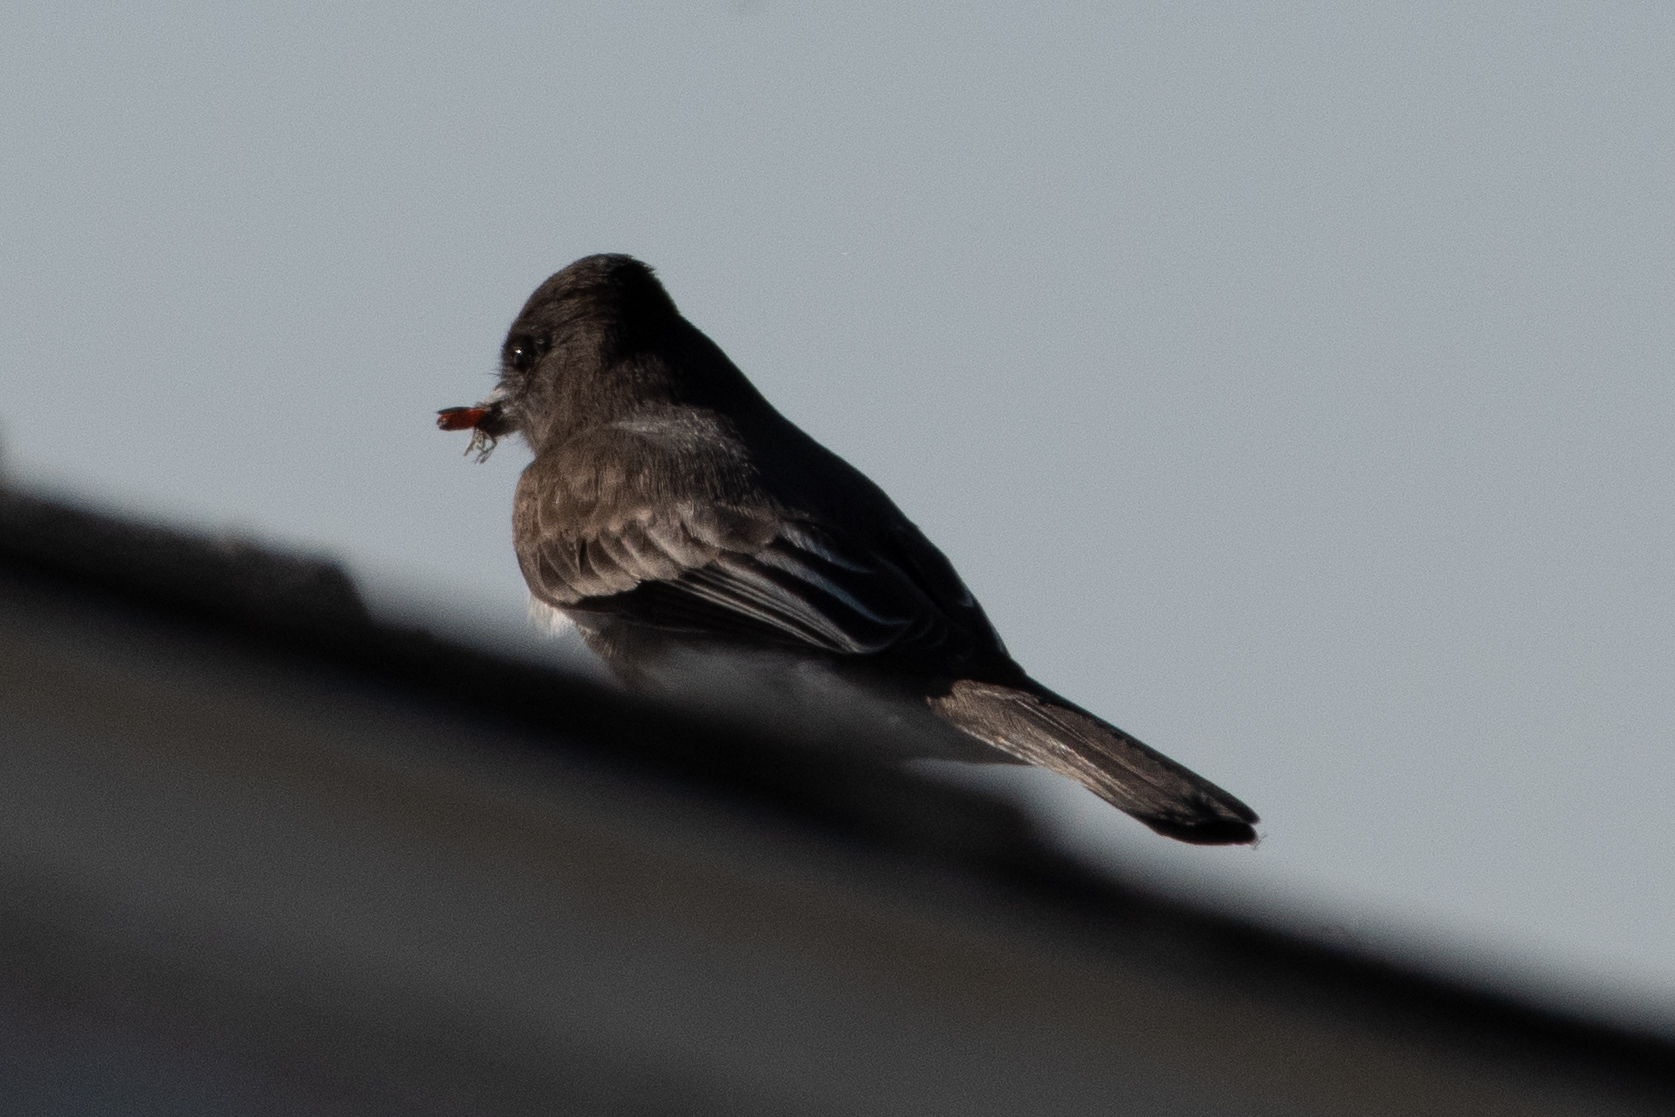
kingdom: Animalia
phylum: Chordata
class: Aves
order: Passeriformes
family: Tyrannidae
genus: Sayornis
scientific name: Sayornis nigricans
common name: Black phoebe
